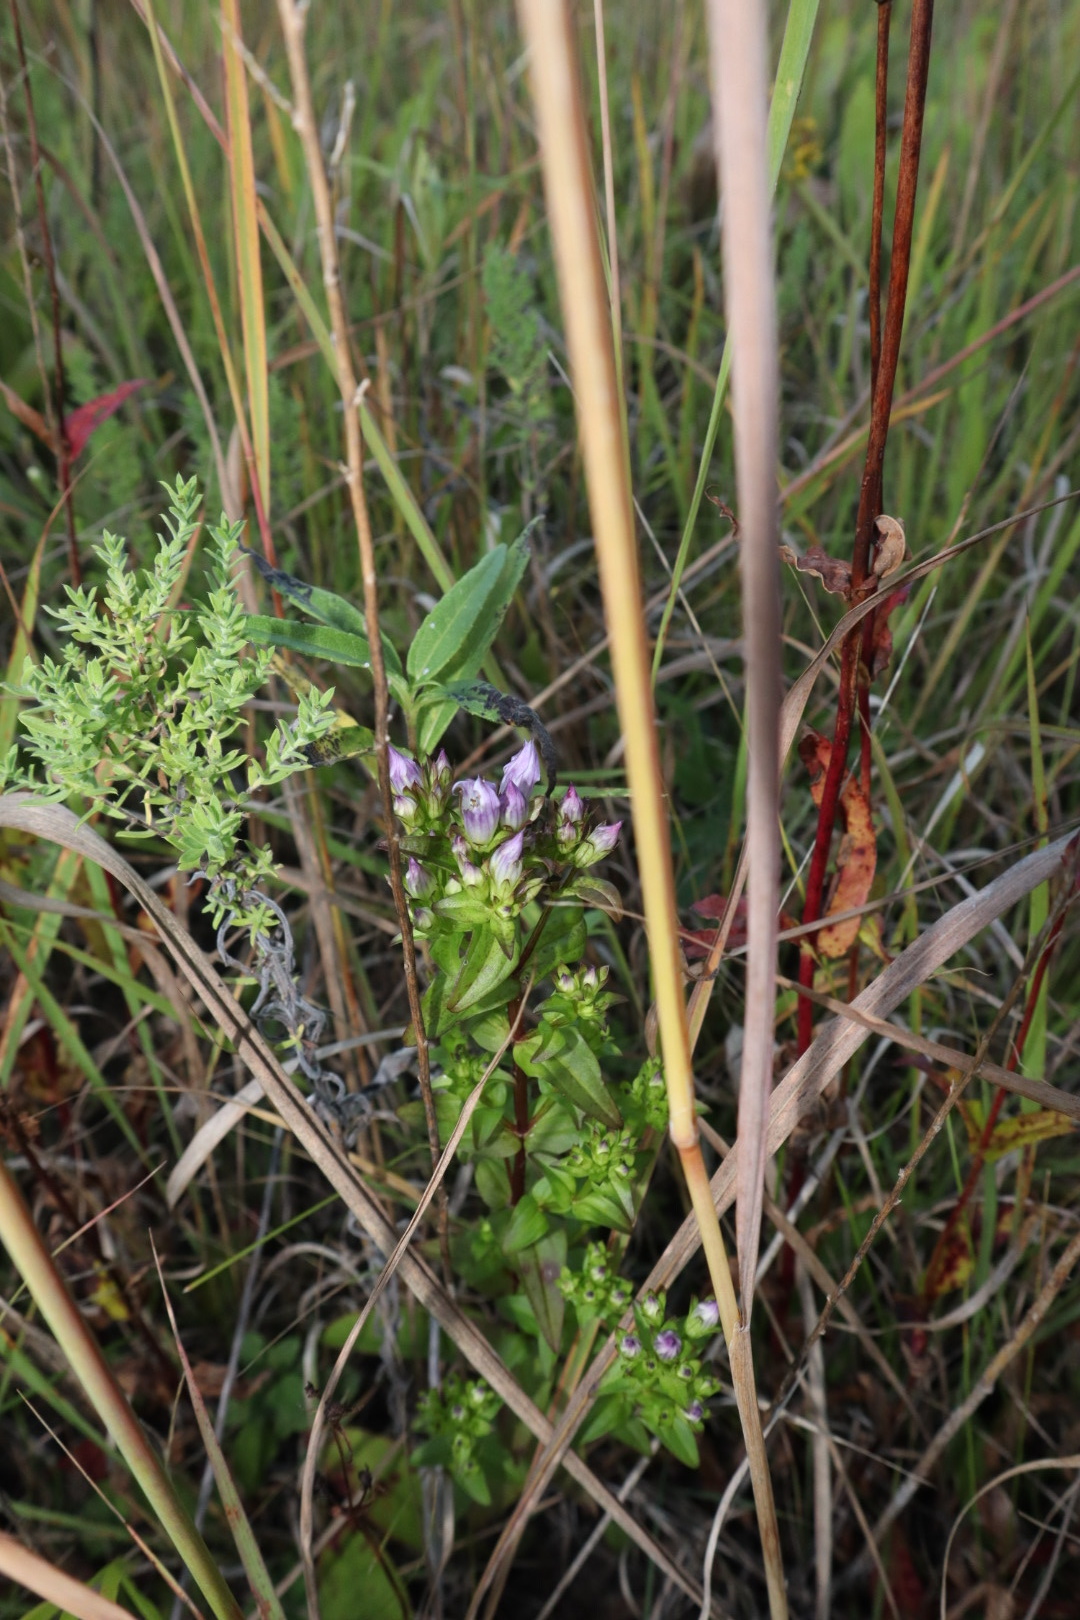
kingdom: Plantae
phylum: Tracheophyta
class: Magnoliopsida
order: Gentianales
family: Gentianaceae
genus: Gentianella
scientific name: Gentianella quinquefolia
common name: Agueweed
